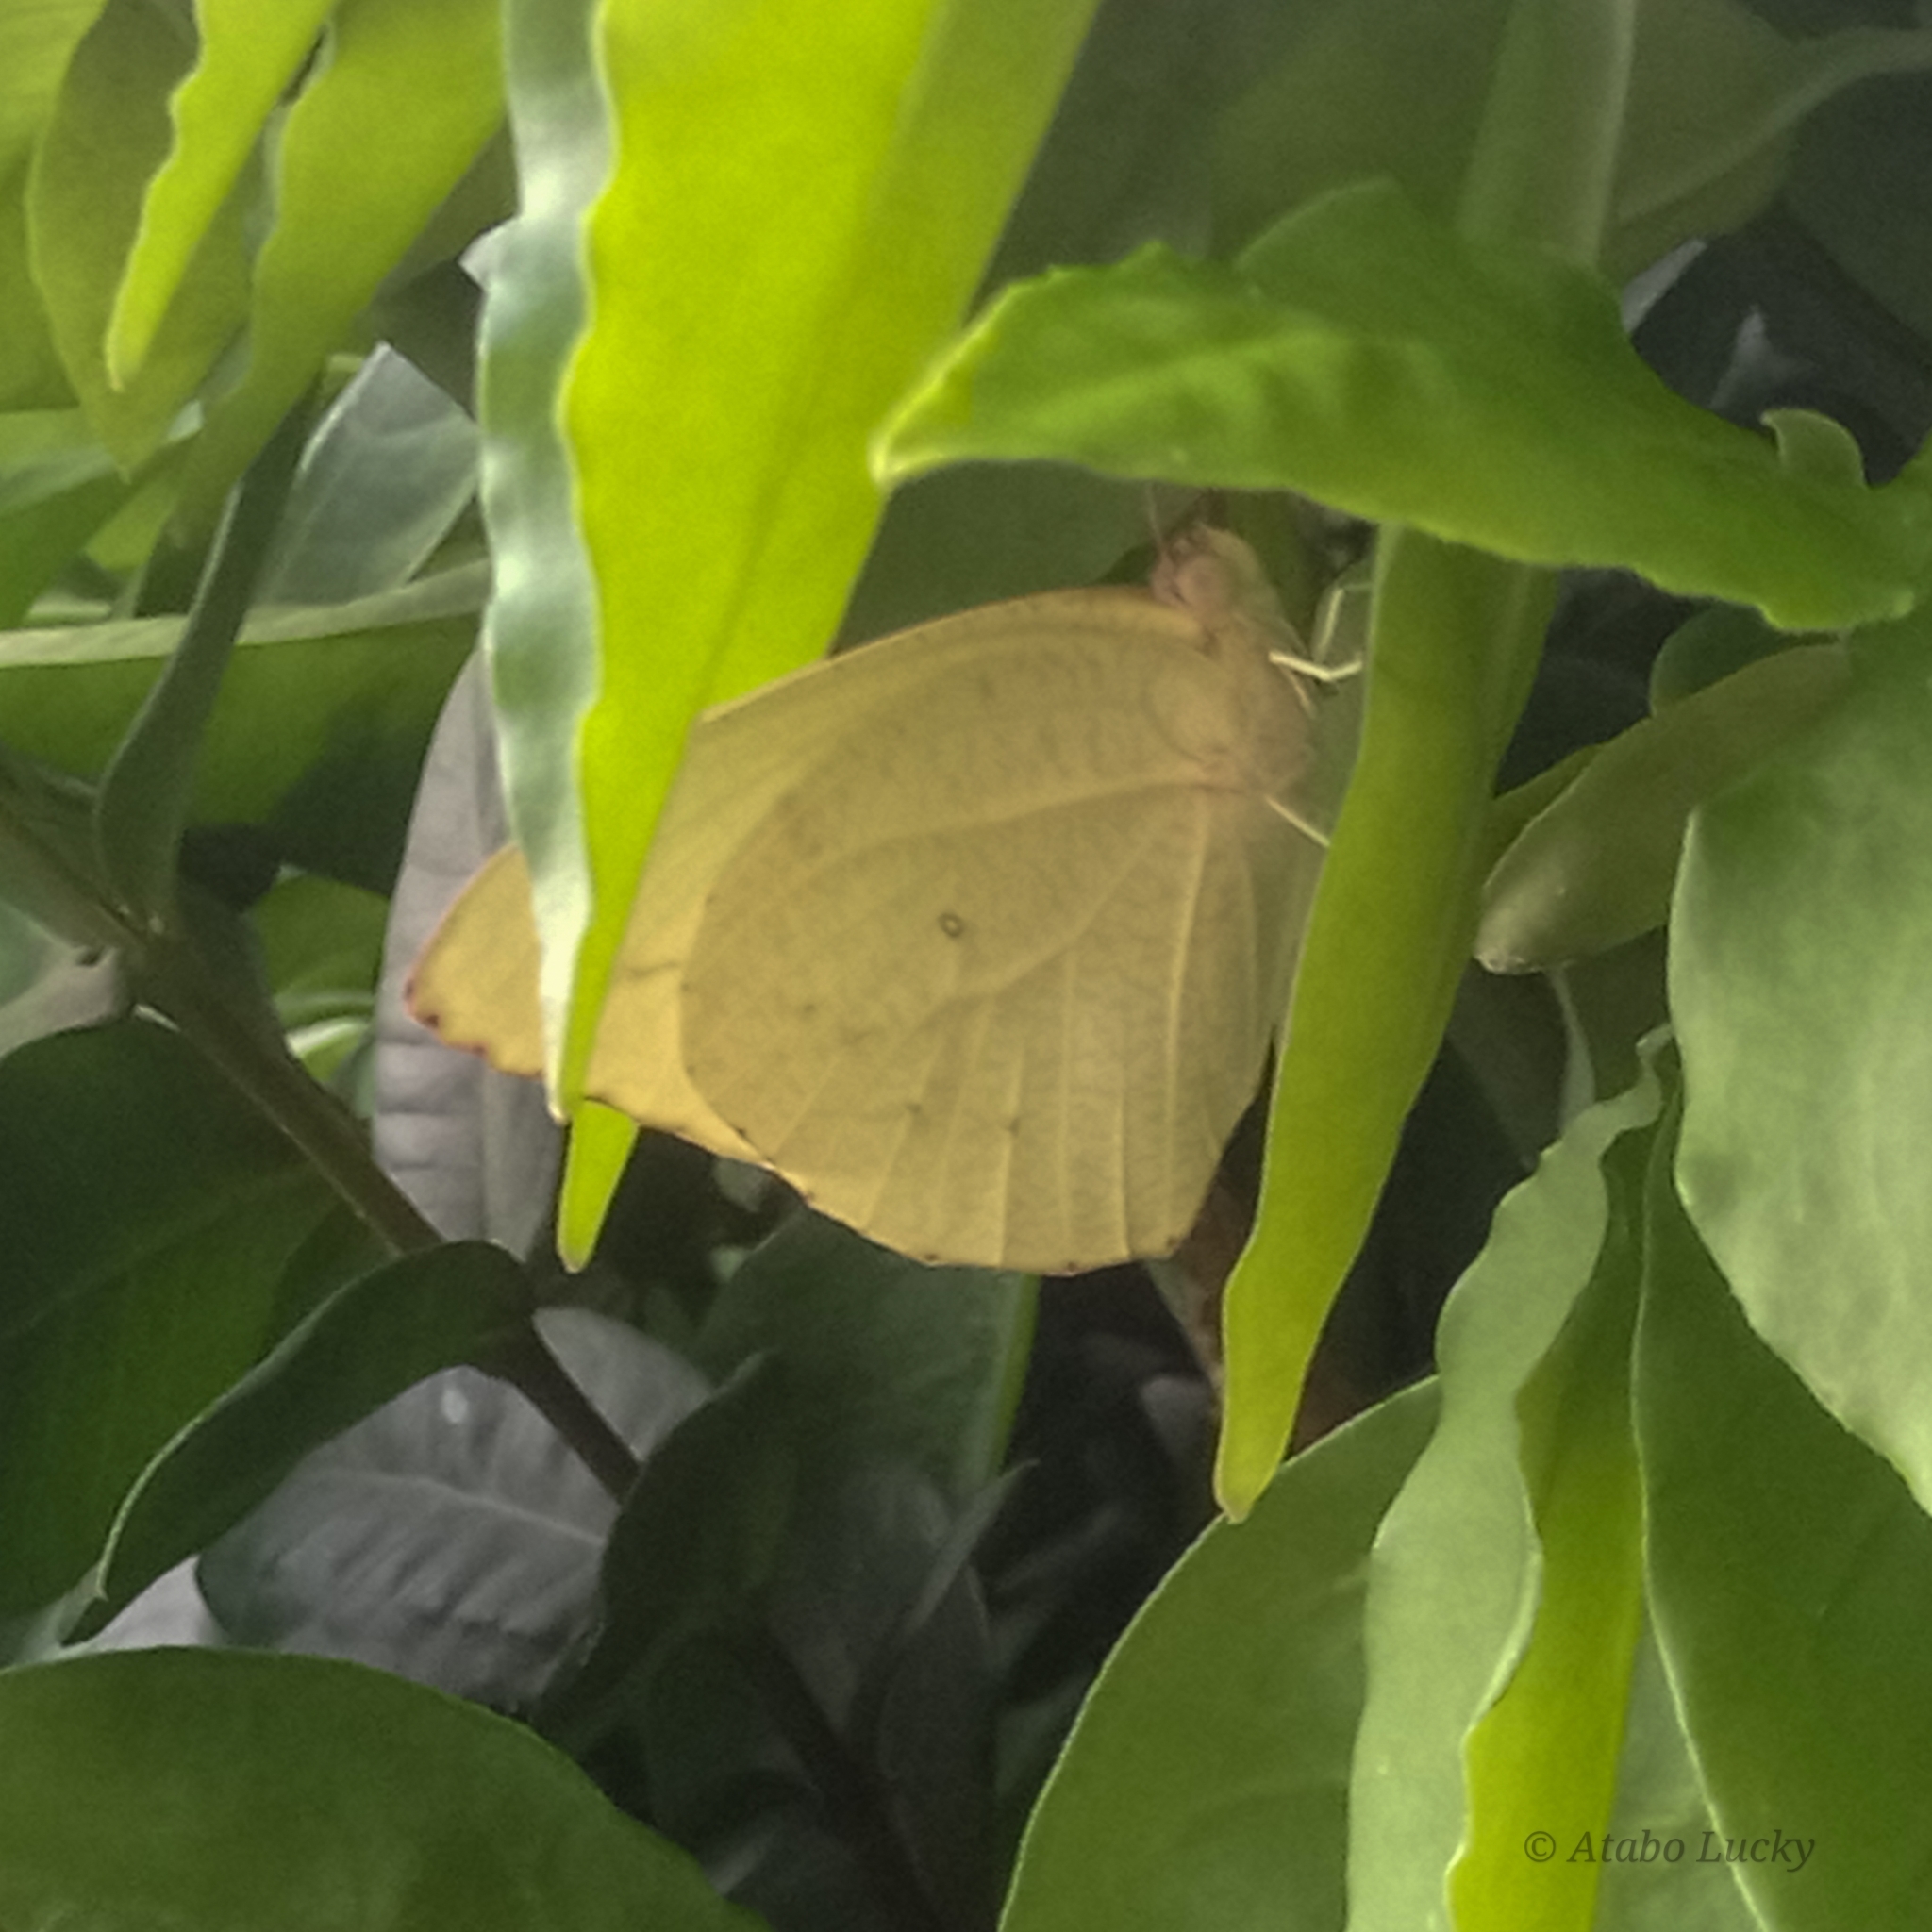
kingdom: Animalia
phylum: Arthropoda
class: Insecta
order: Lepidoptera
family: Pieridae
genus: Catopsilia
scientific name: Catopsilia florella
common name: African migrant
